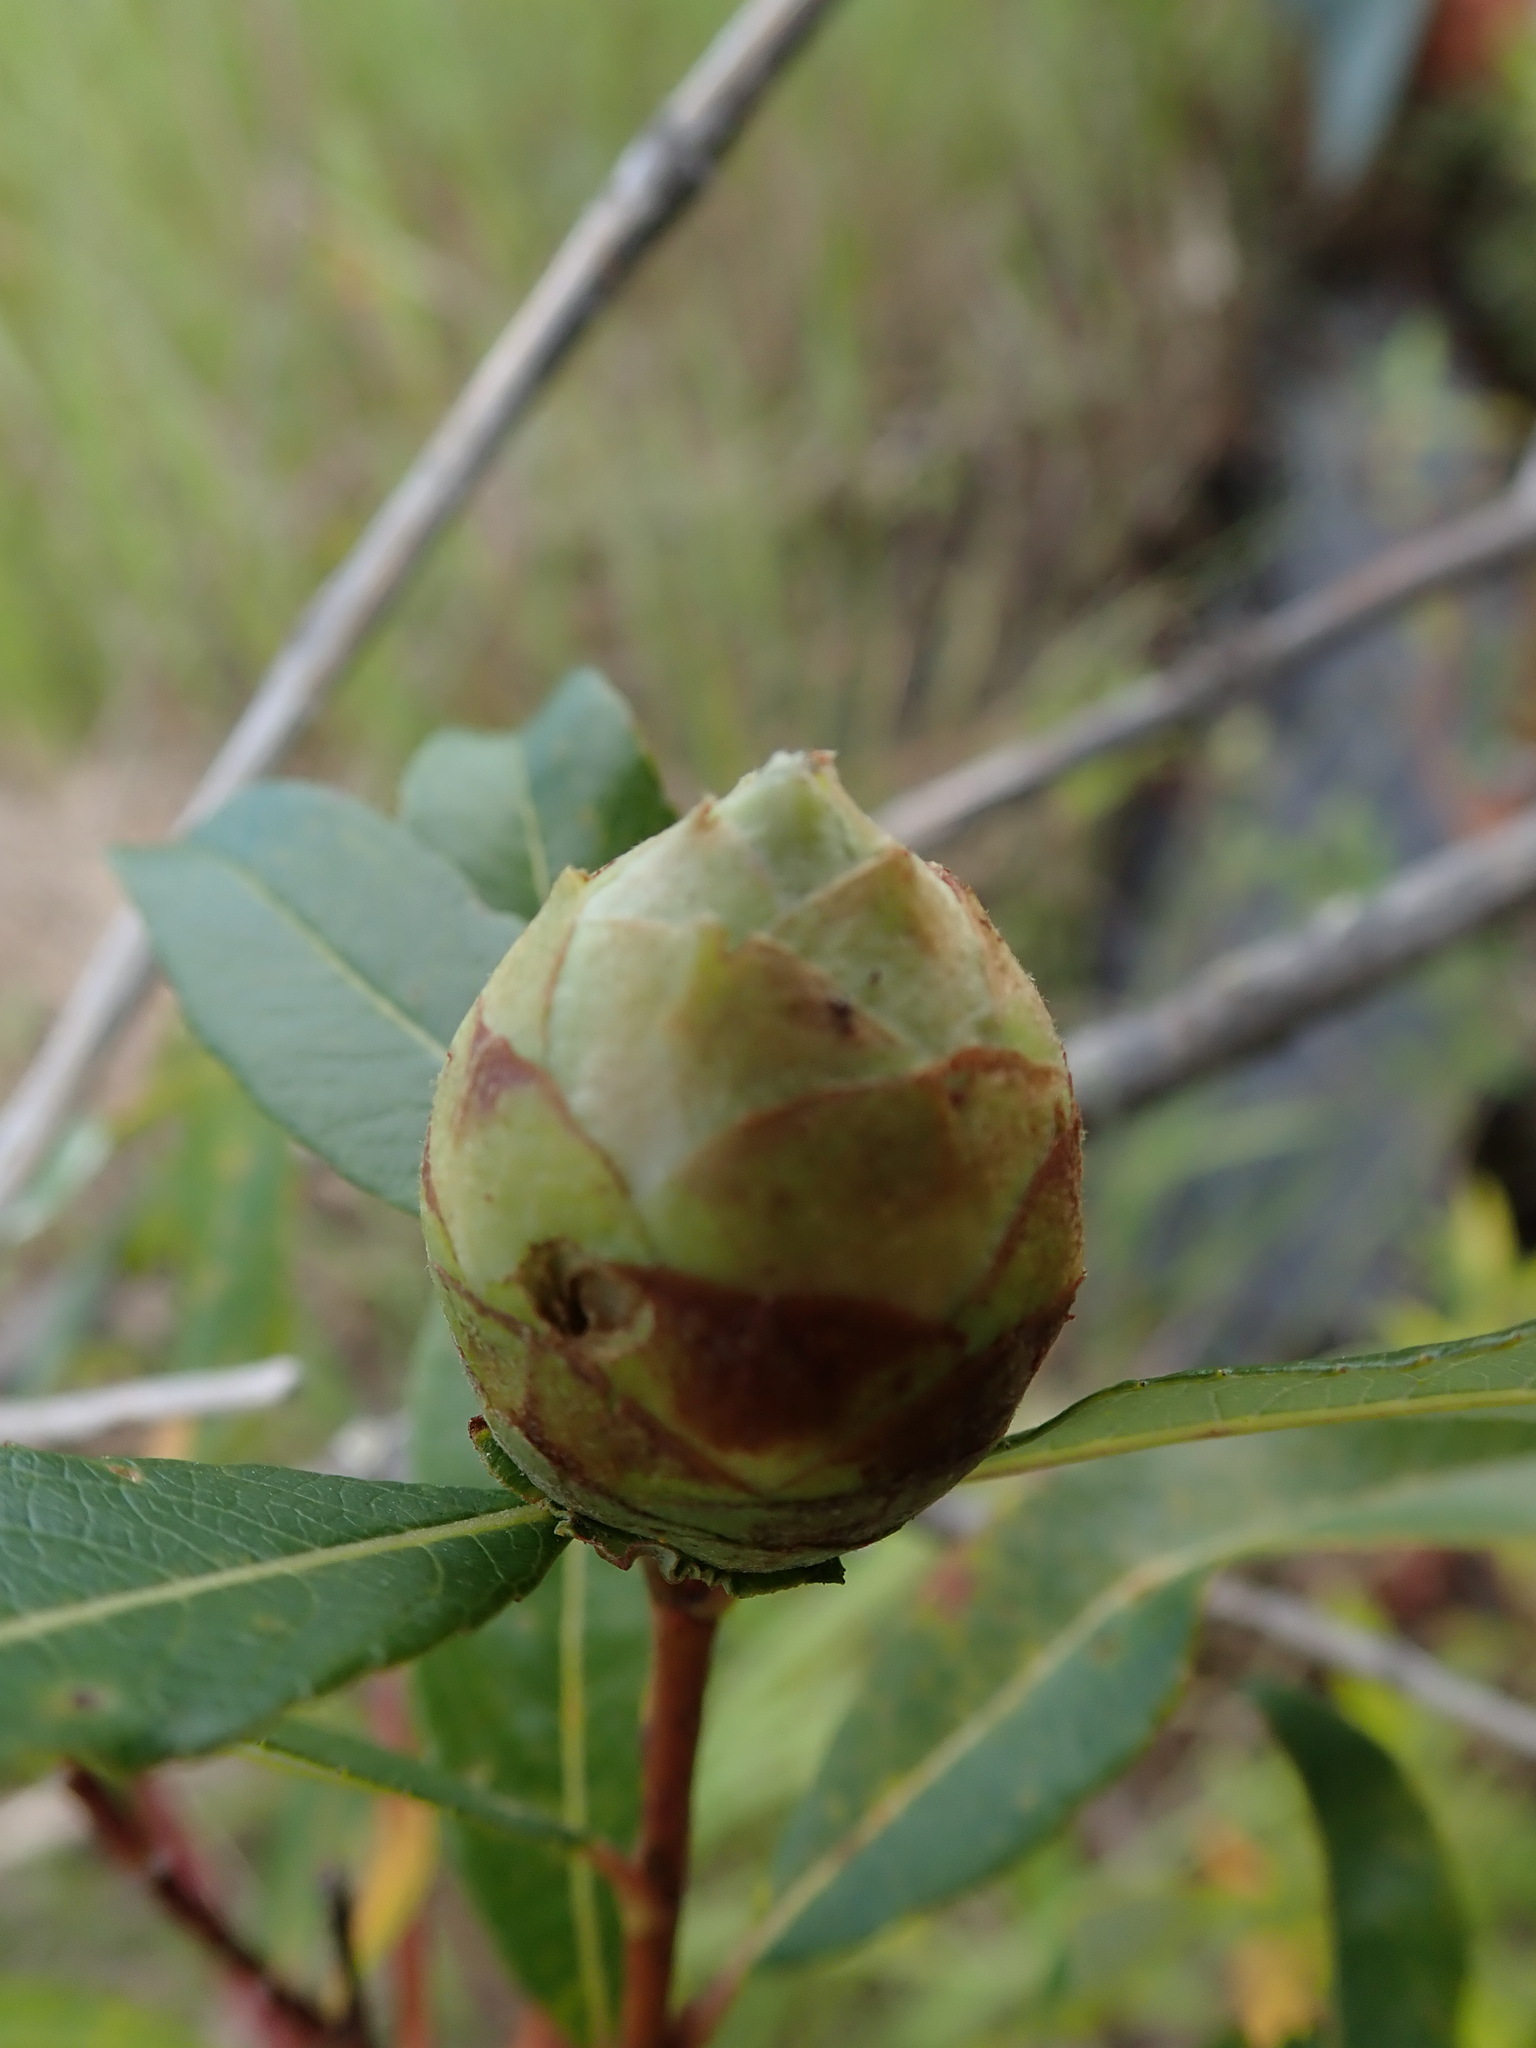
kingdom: Animalia
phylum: Arthropoda
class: Insecta
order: Diptera
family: Cecidomyiidae
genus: Rabdophaga
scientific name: Rabdophaga strobiloides
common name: Willow pinecone gall midge
